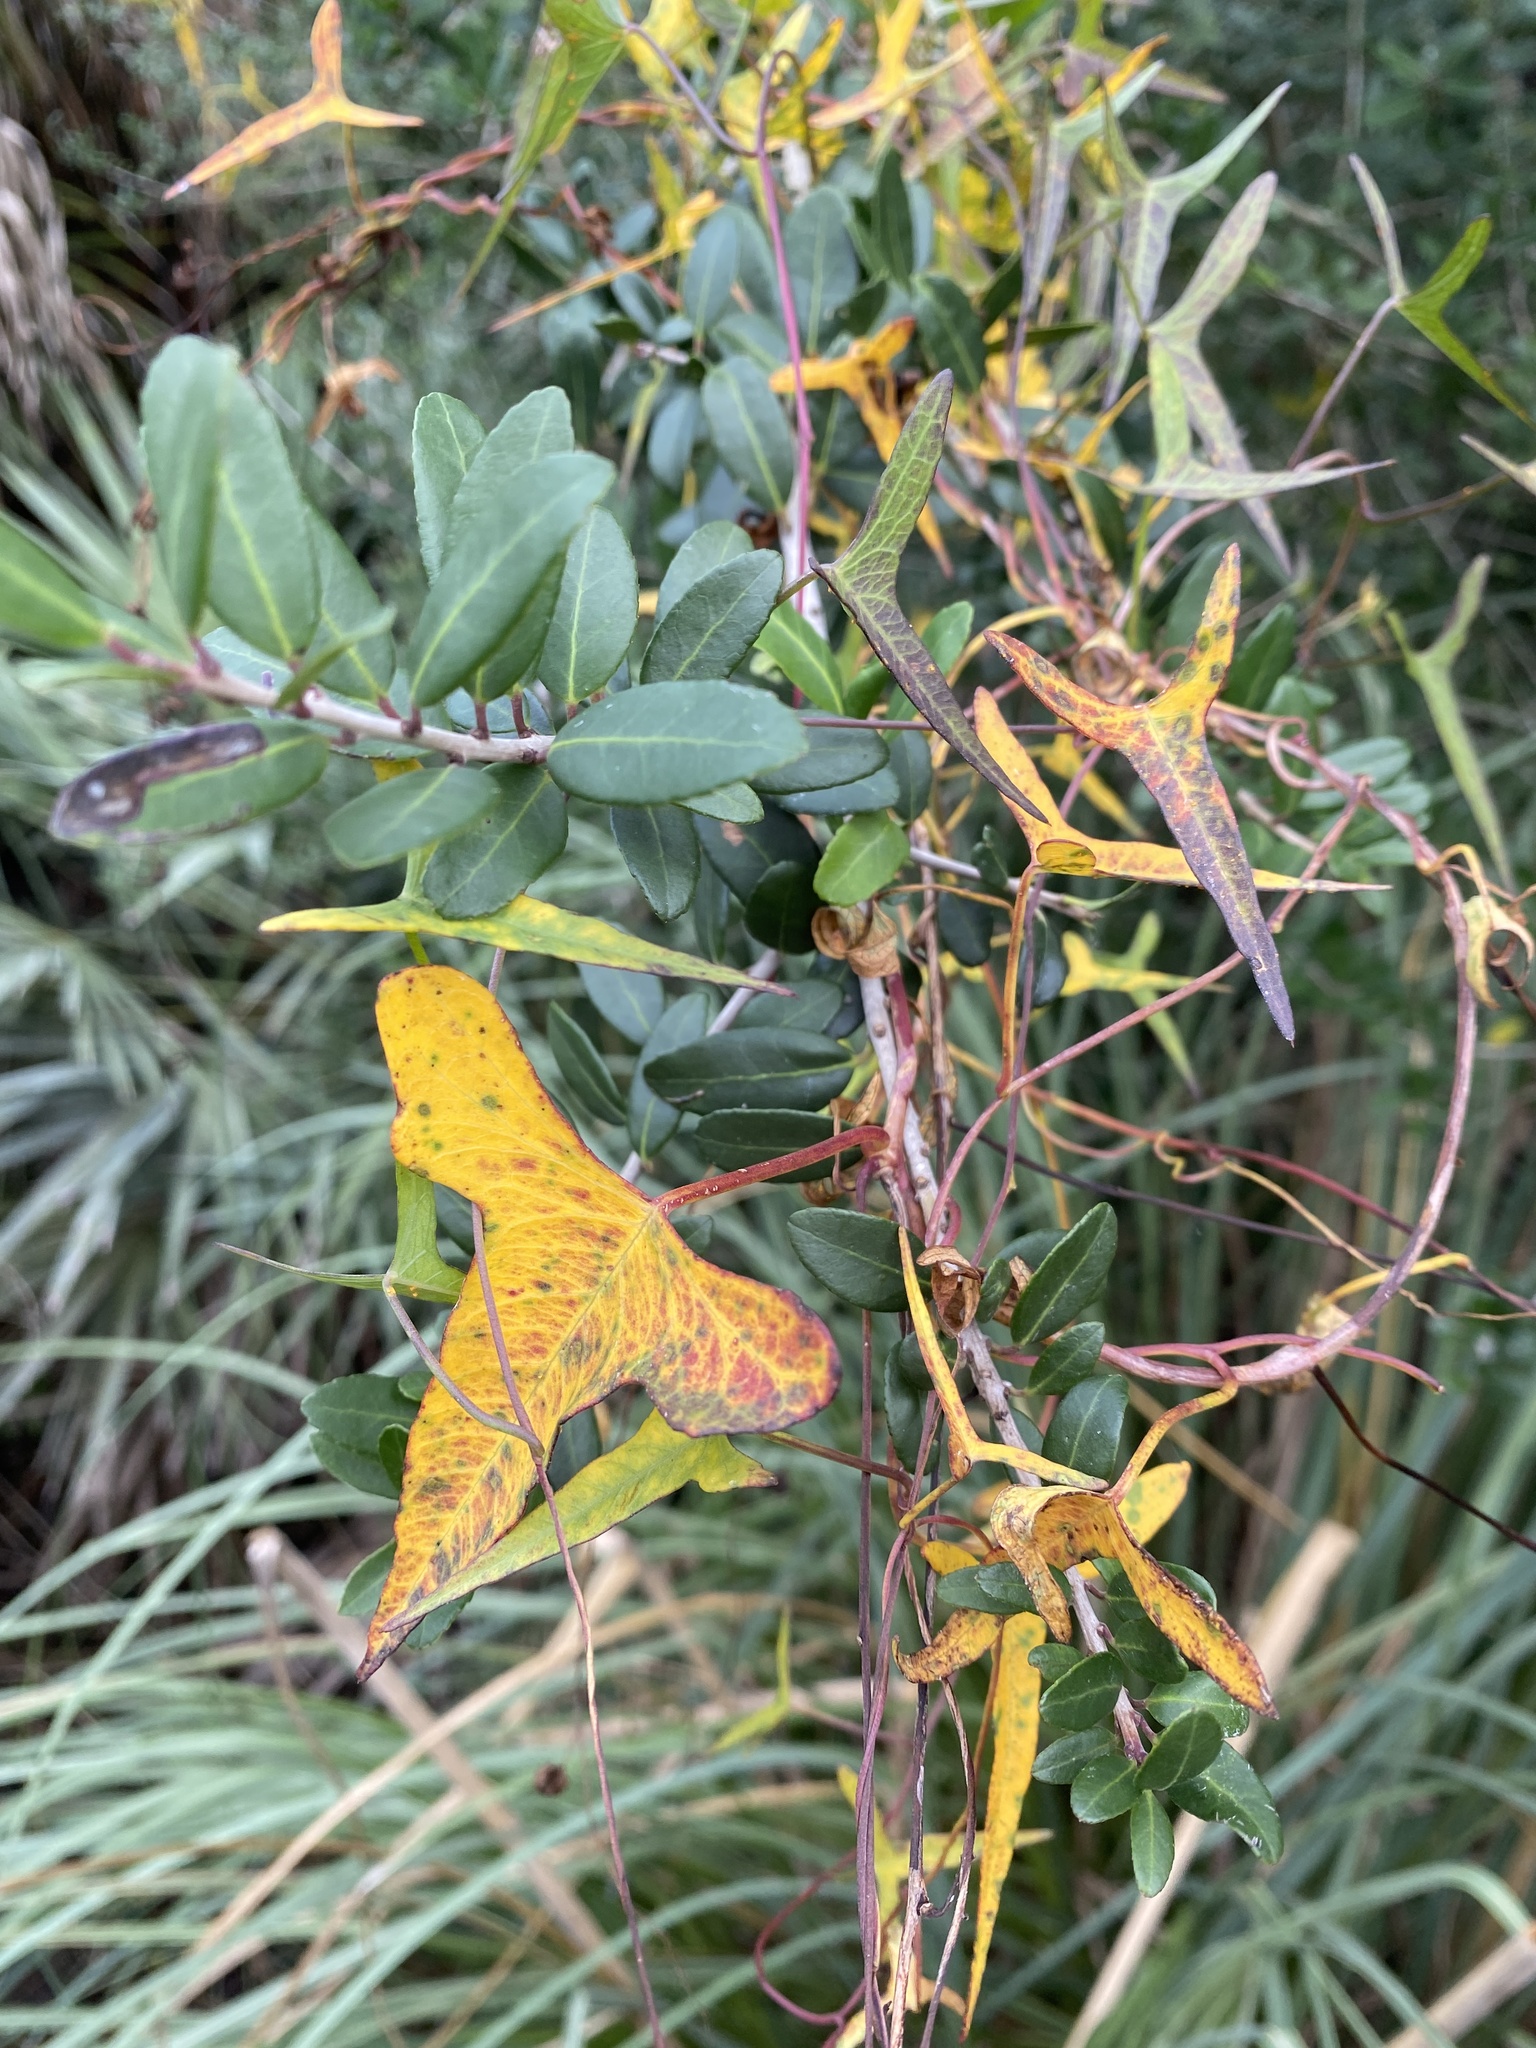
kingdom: Plantae
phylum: Tracheophyta
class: Magnoliopsida
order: Solanales
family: Convolvulaceae
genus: Ipomoea
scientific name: Ipomoea sagittata
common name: Saltmarsh morning glory
